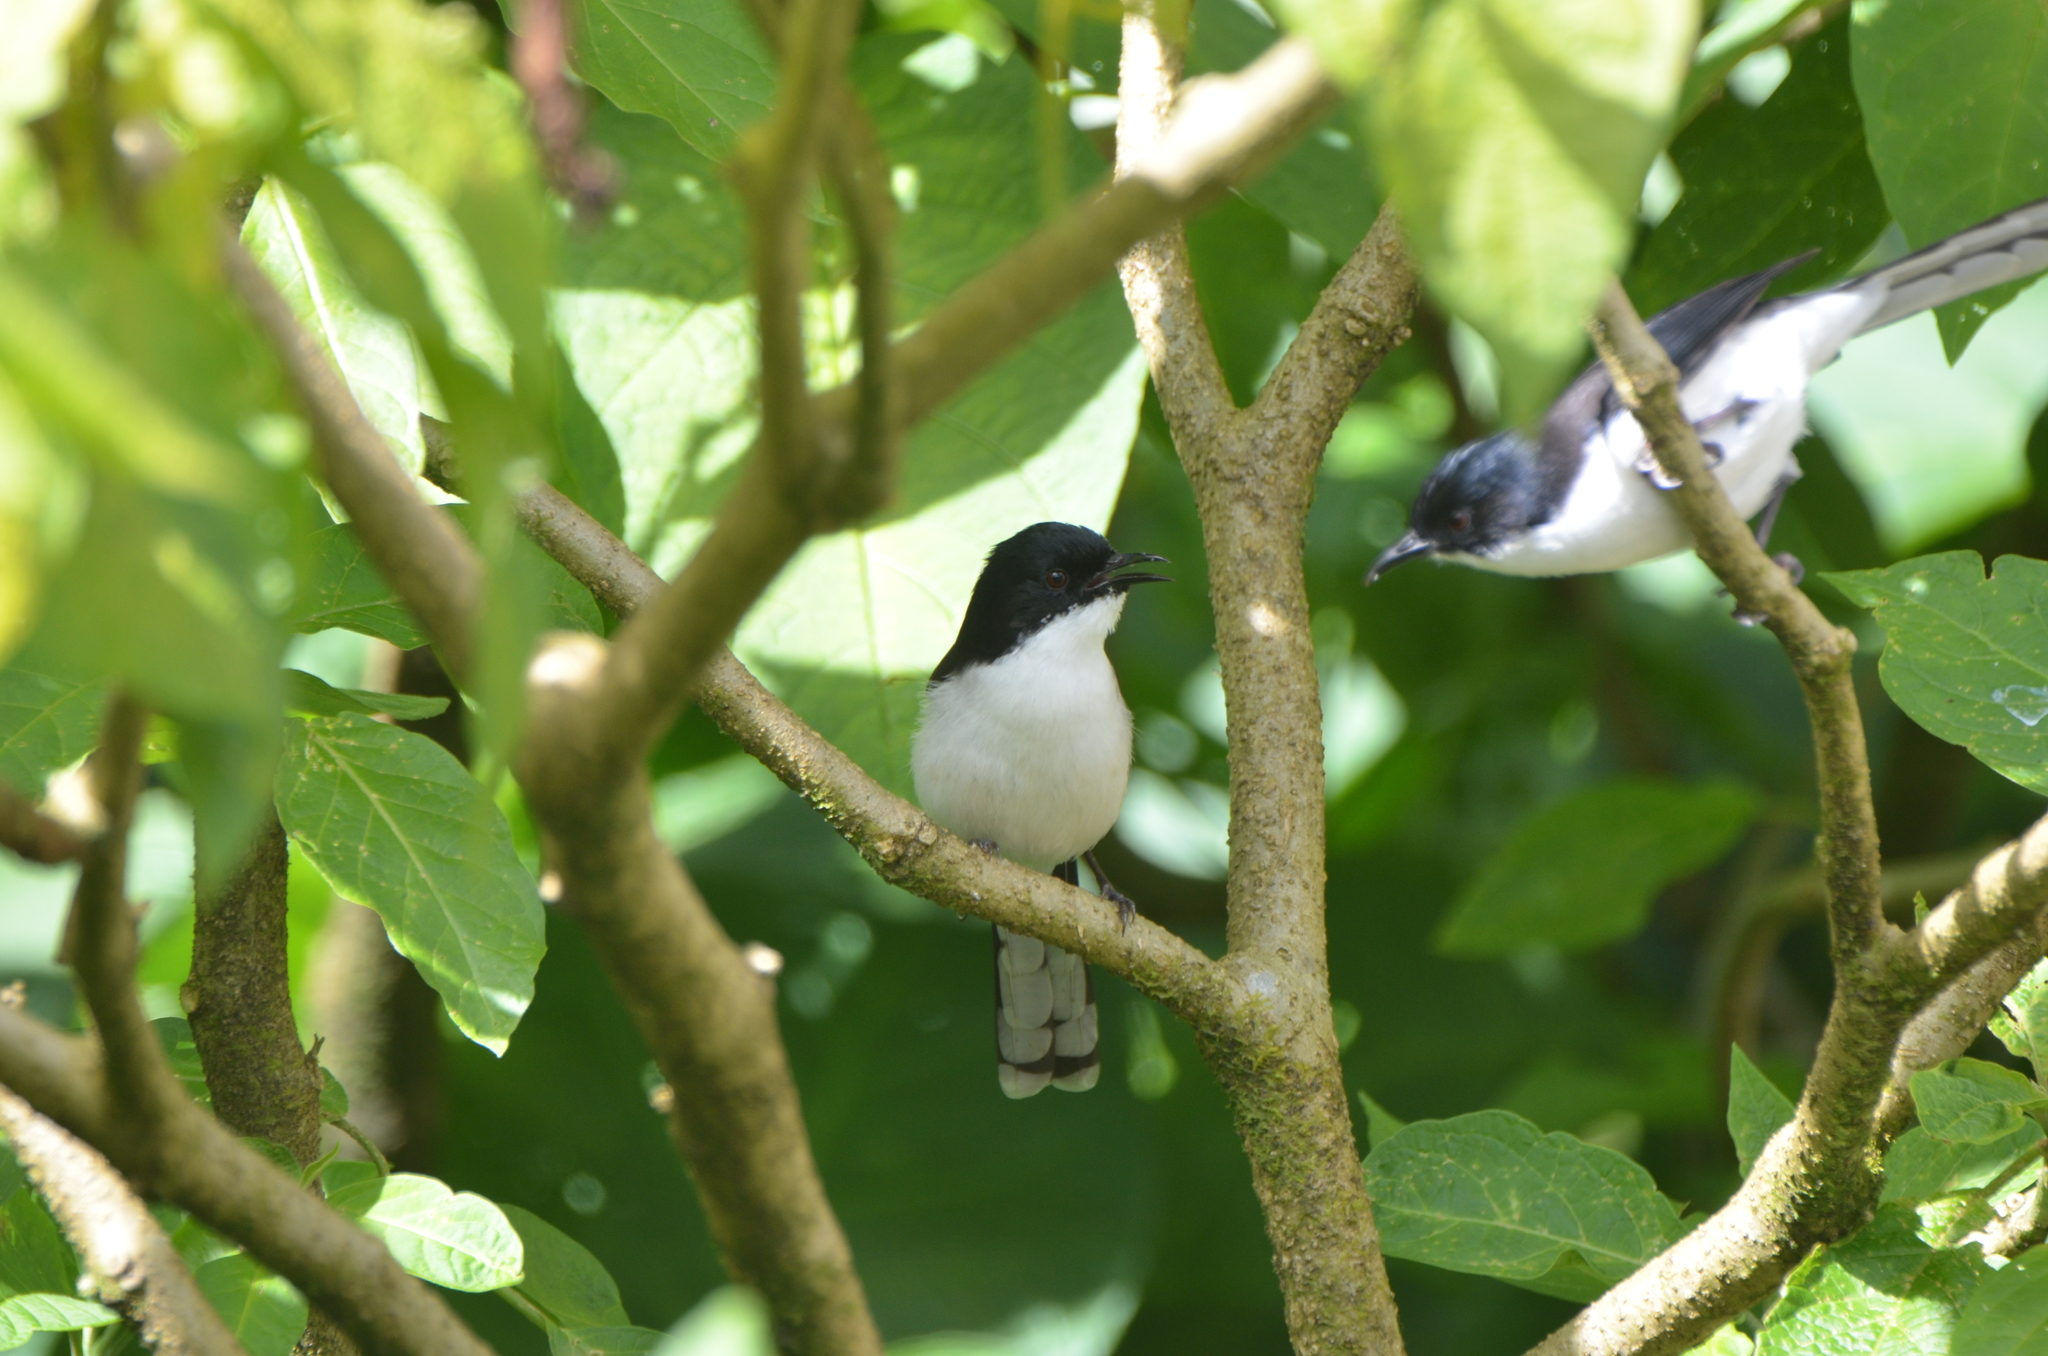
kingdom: Animalia
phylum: Chordata
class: Aves
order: Passeriformes
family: Leiothrichidae
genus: Heterophasia
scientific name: Heterophasia melanoleuca
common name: Dark-backed sibia
